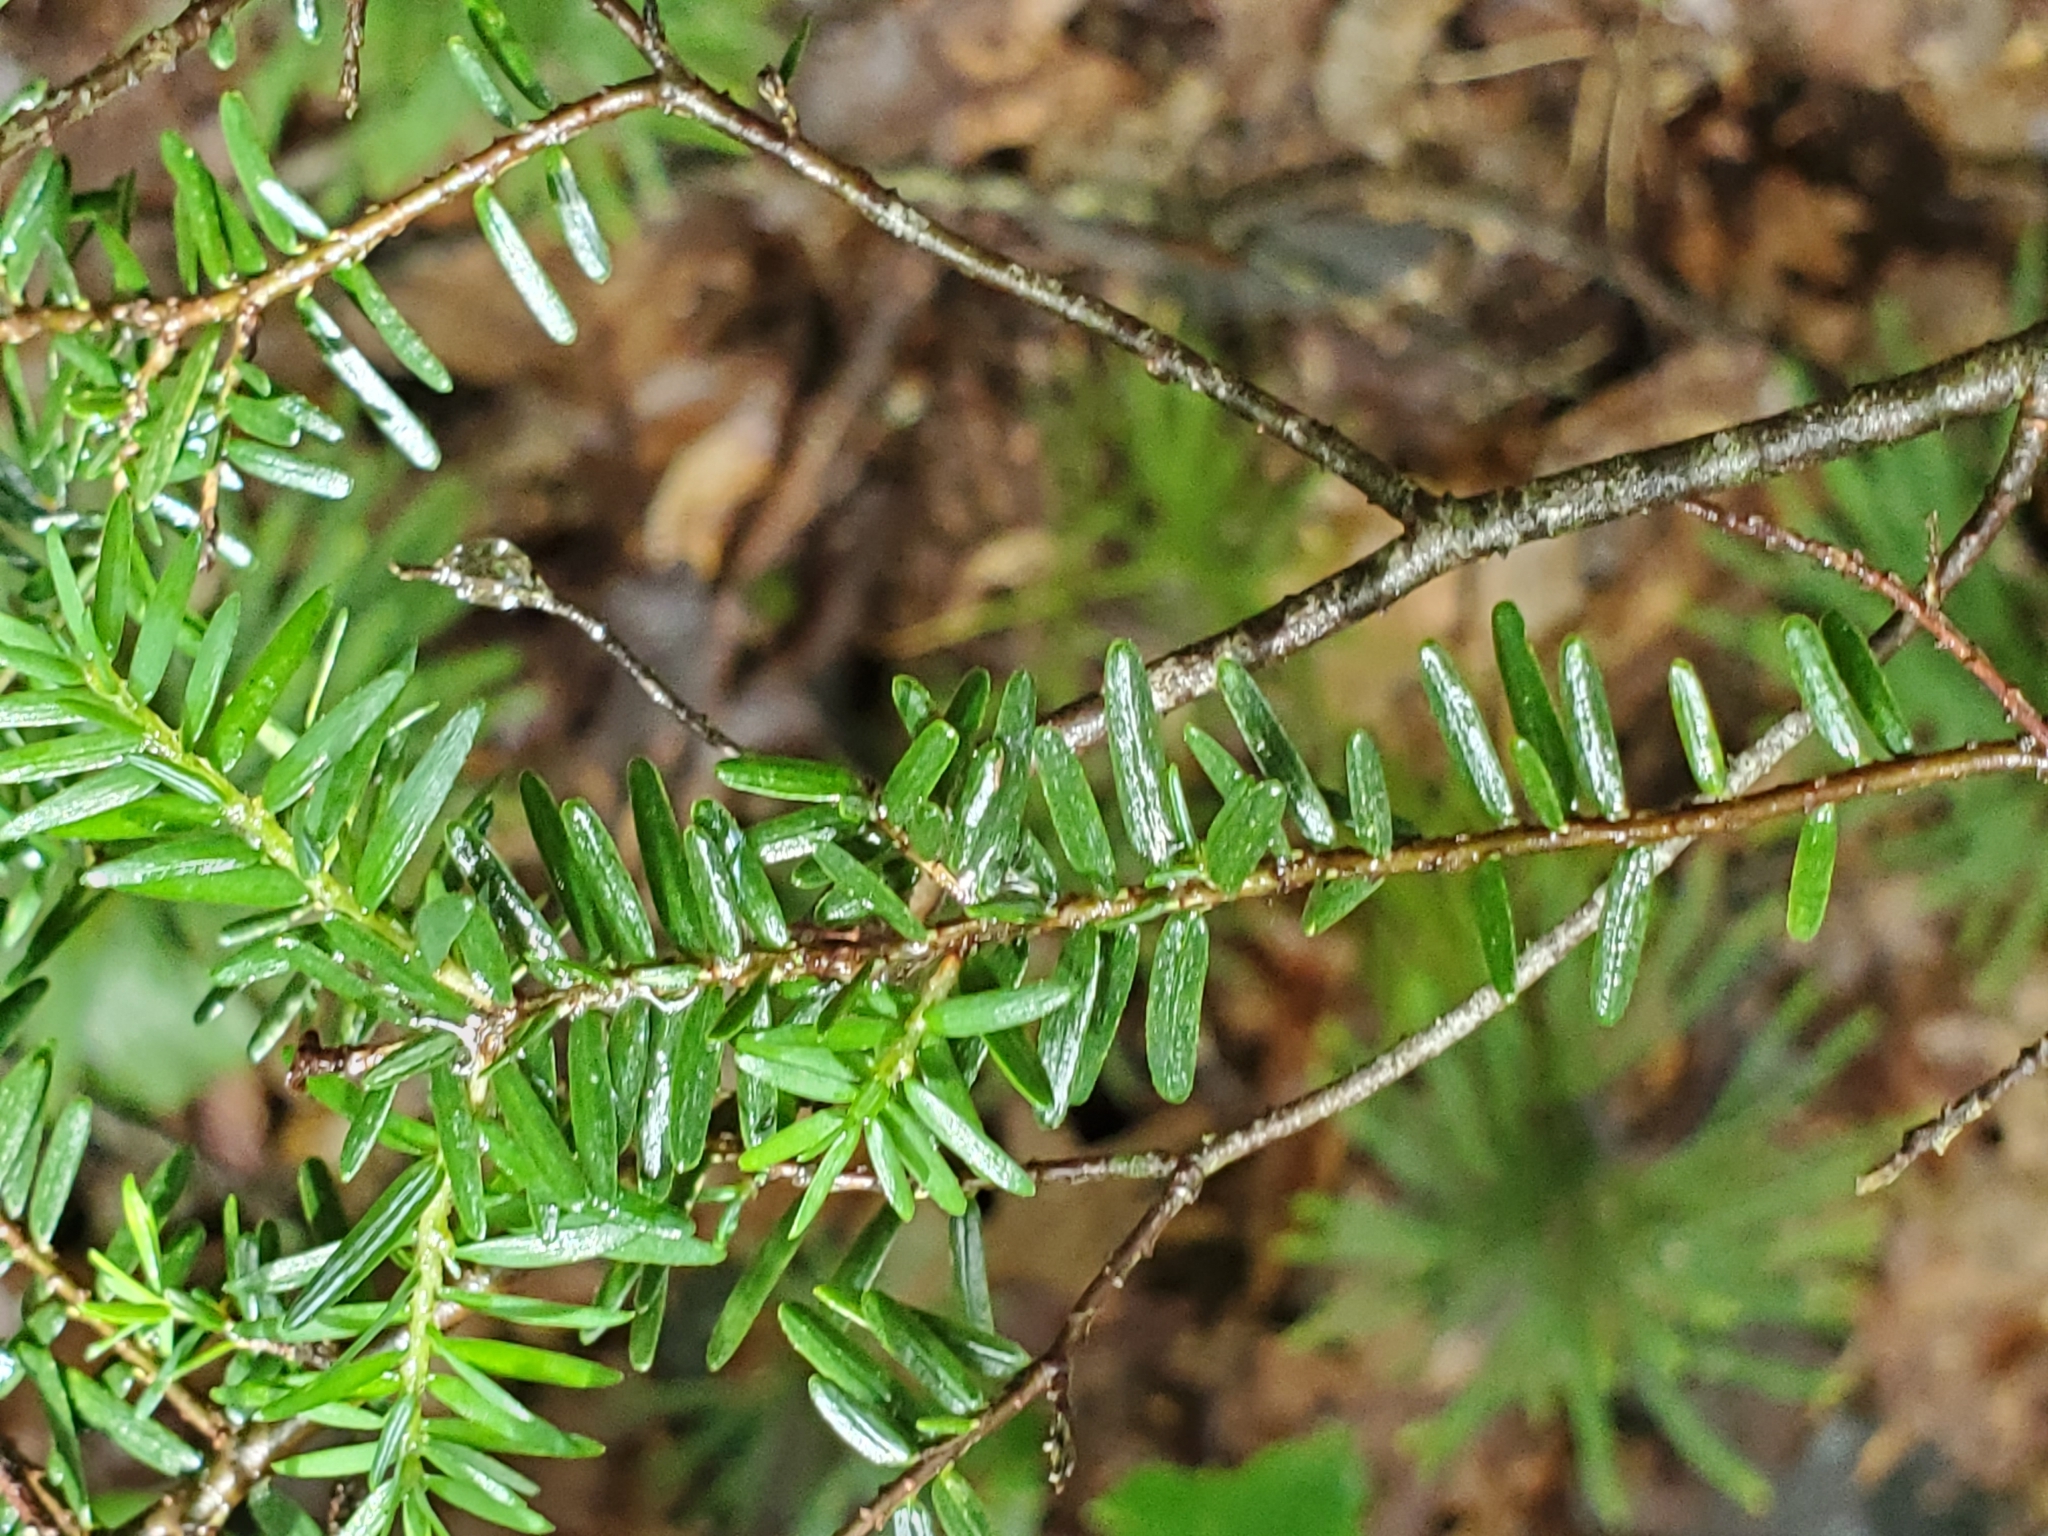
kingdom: Plantae
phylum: Tracheophyta
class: Pinopsida
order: Pinales
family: Pinaceae
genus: Tsuga
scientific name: Tsuga canadensis
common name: Eastern hemlock
